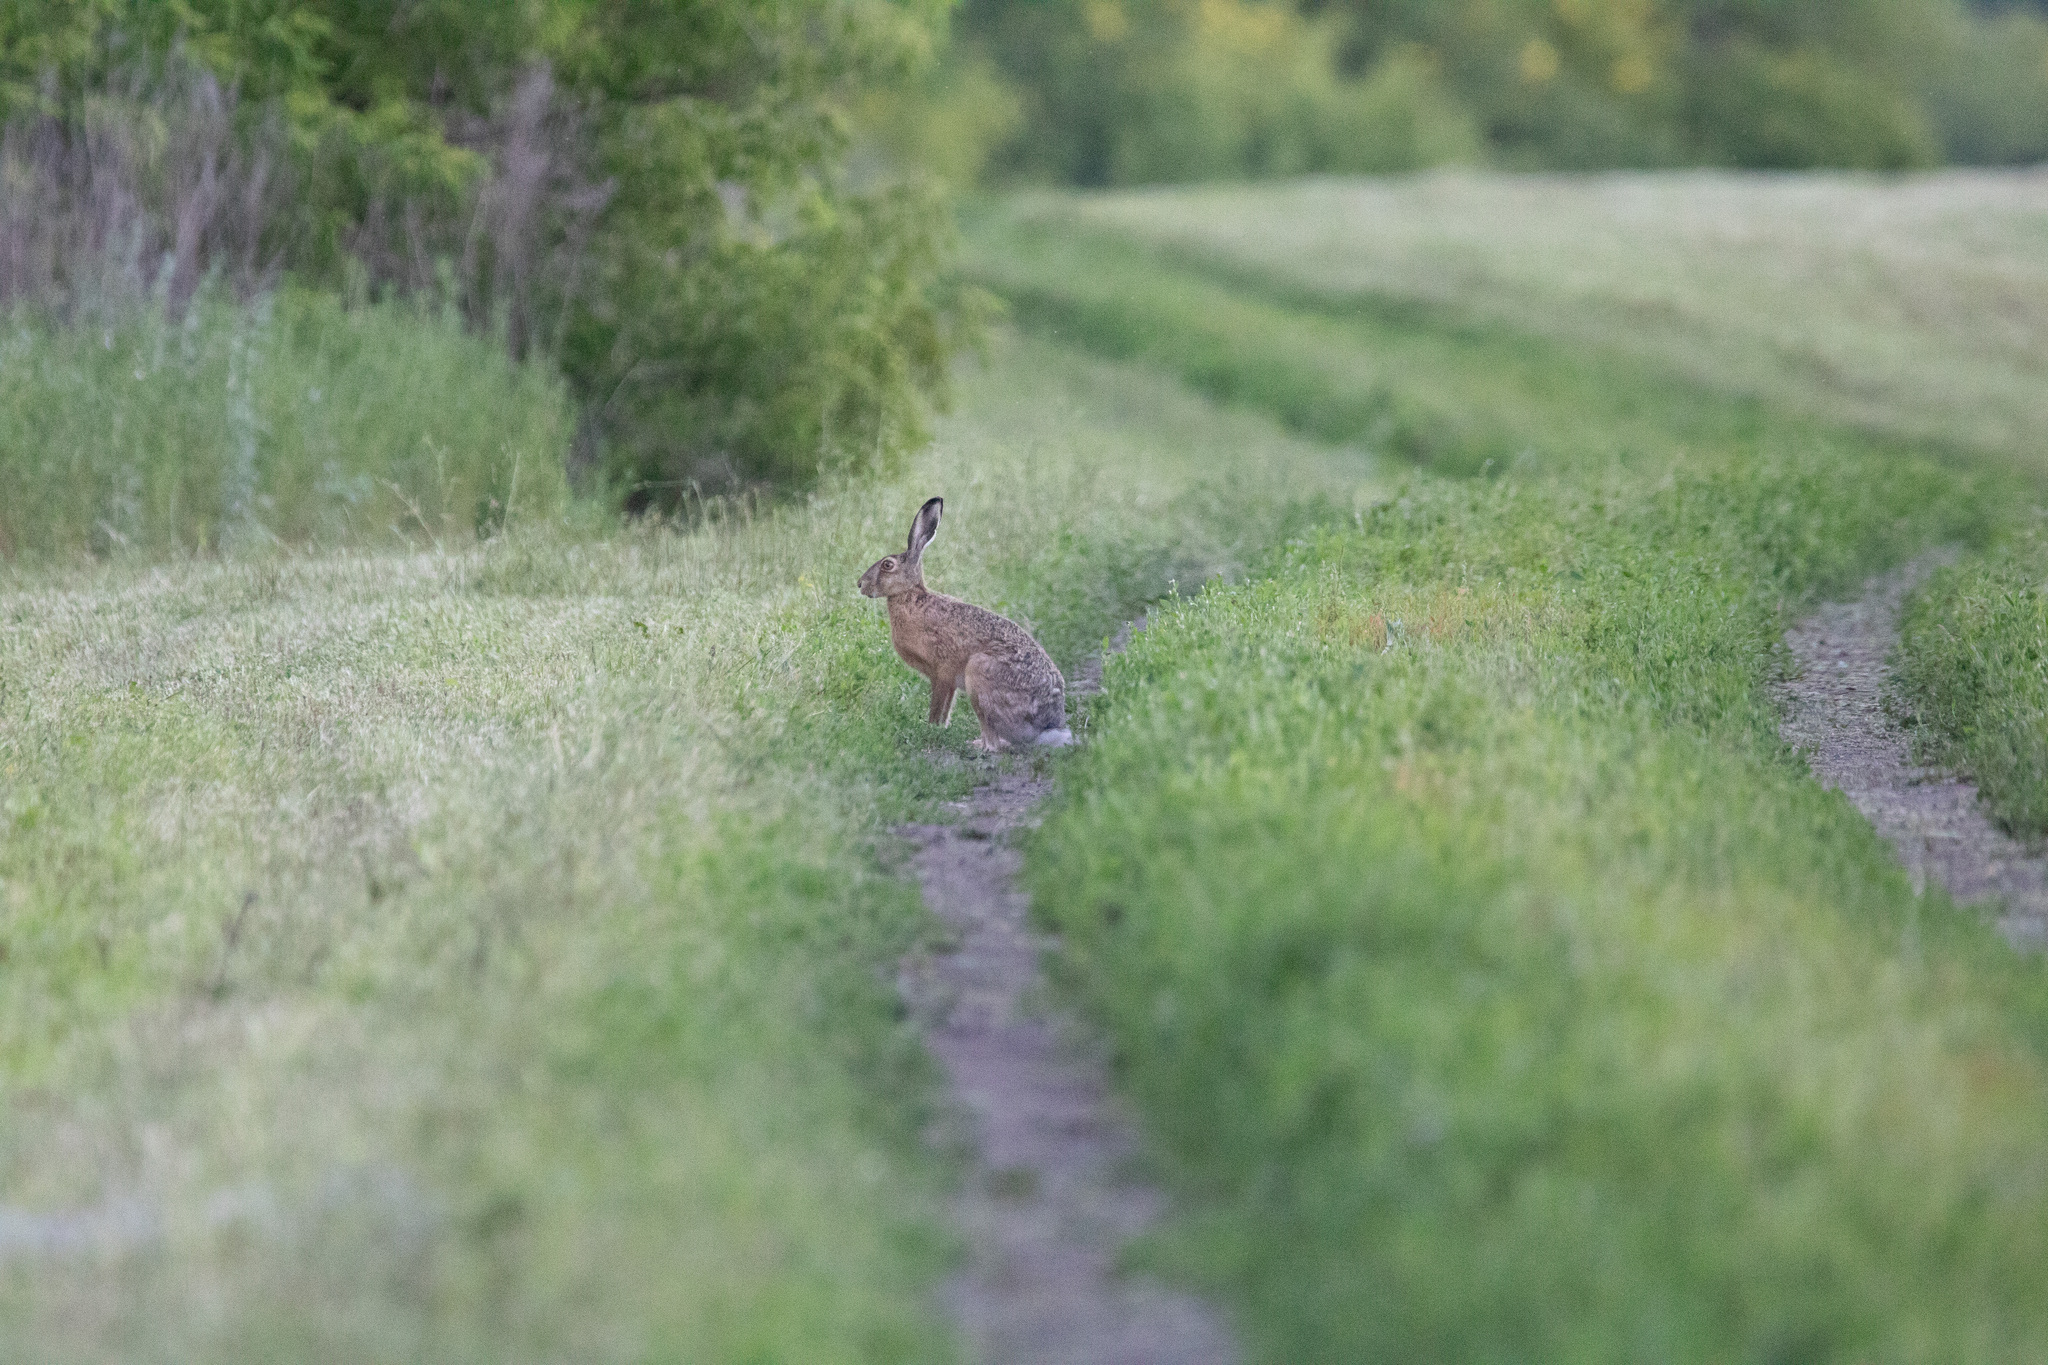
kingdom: Animalia
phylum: Chordata
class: Mammalia
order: Lagomorpha
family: Leporidae
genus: Lepus
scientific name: Lepus europaeus
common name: European hare
